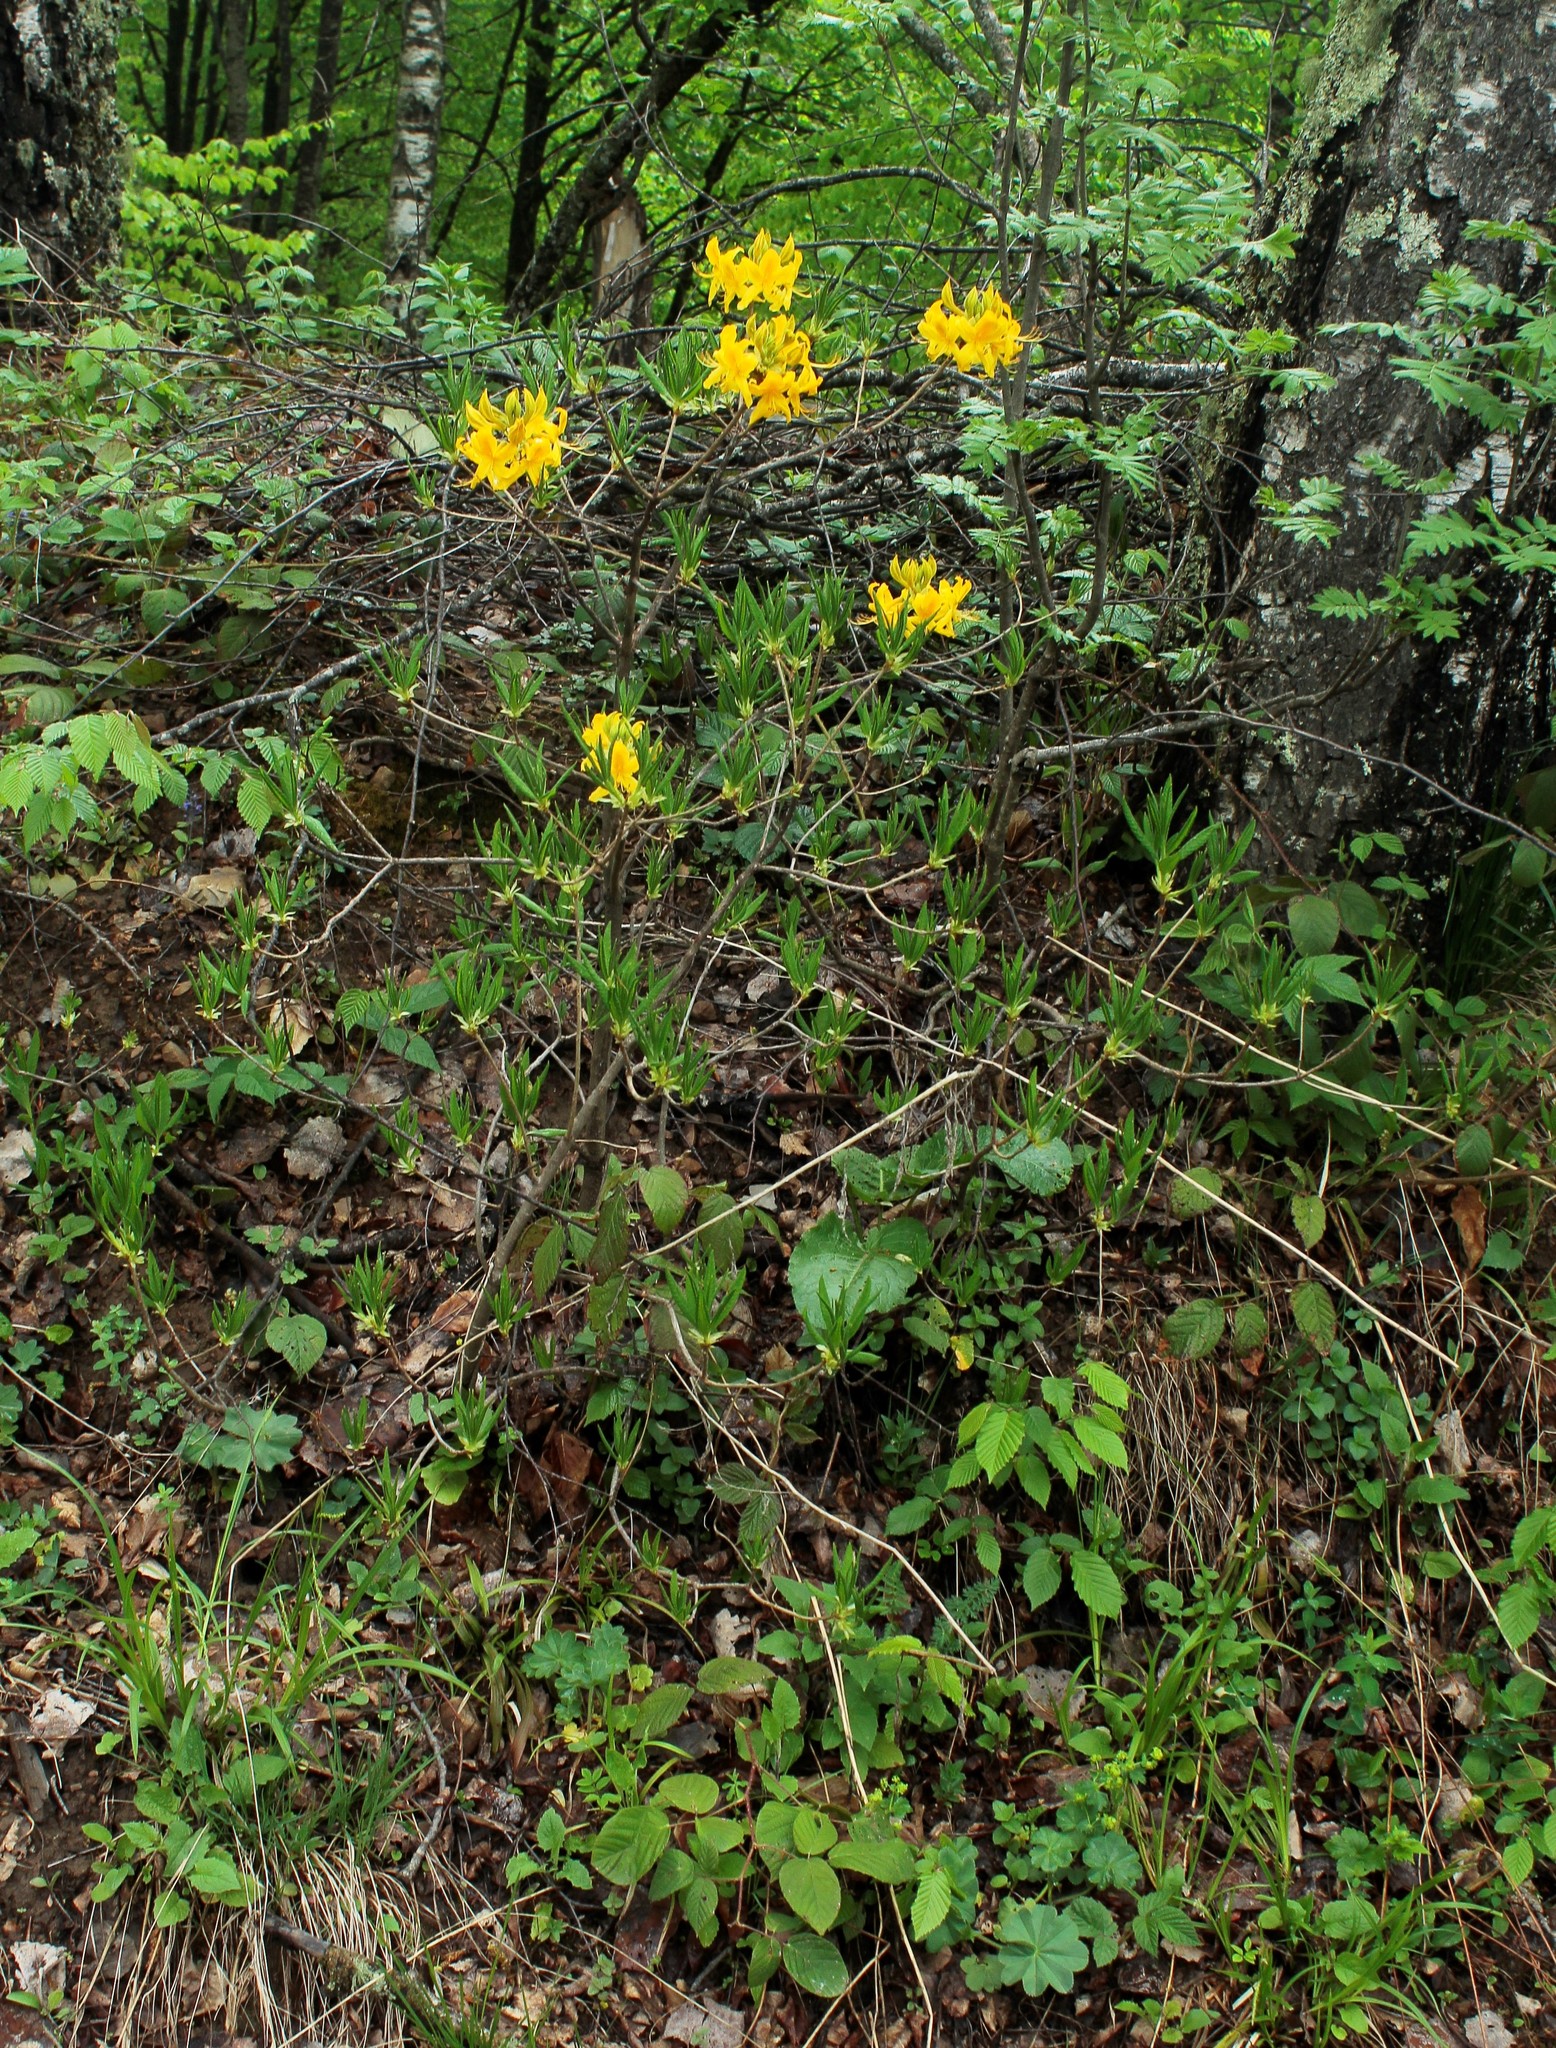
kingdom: Plantae
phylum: Tracheophyta
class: Magnoliopsida
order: Ericales
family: Ericaceae
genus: Rhododendron
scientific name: Rhododendron luteum
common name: Yellow azalea
